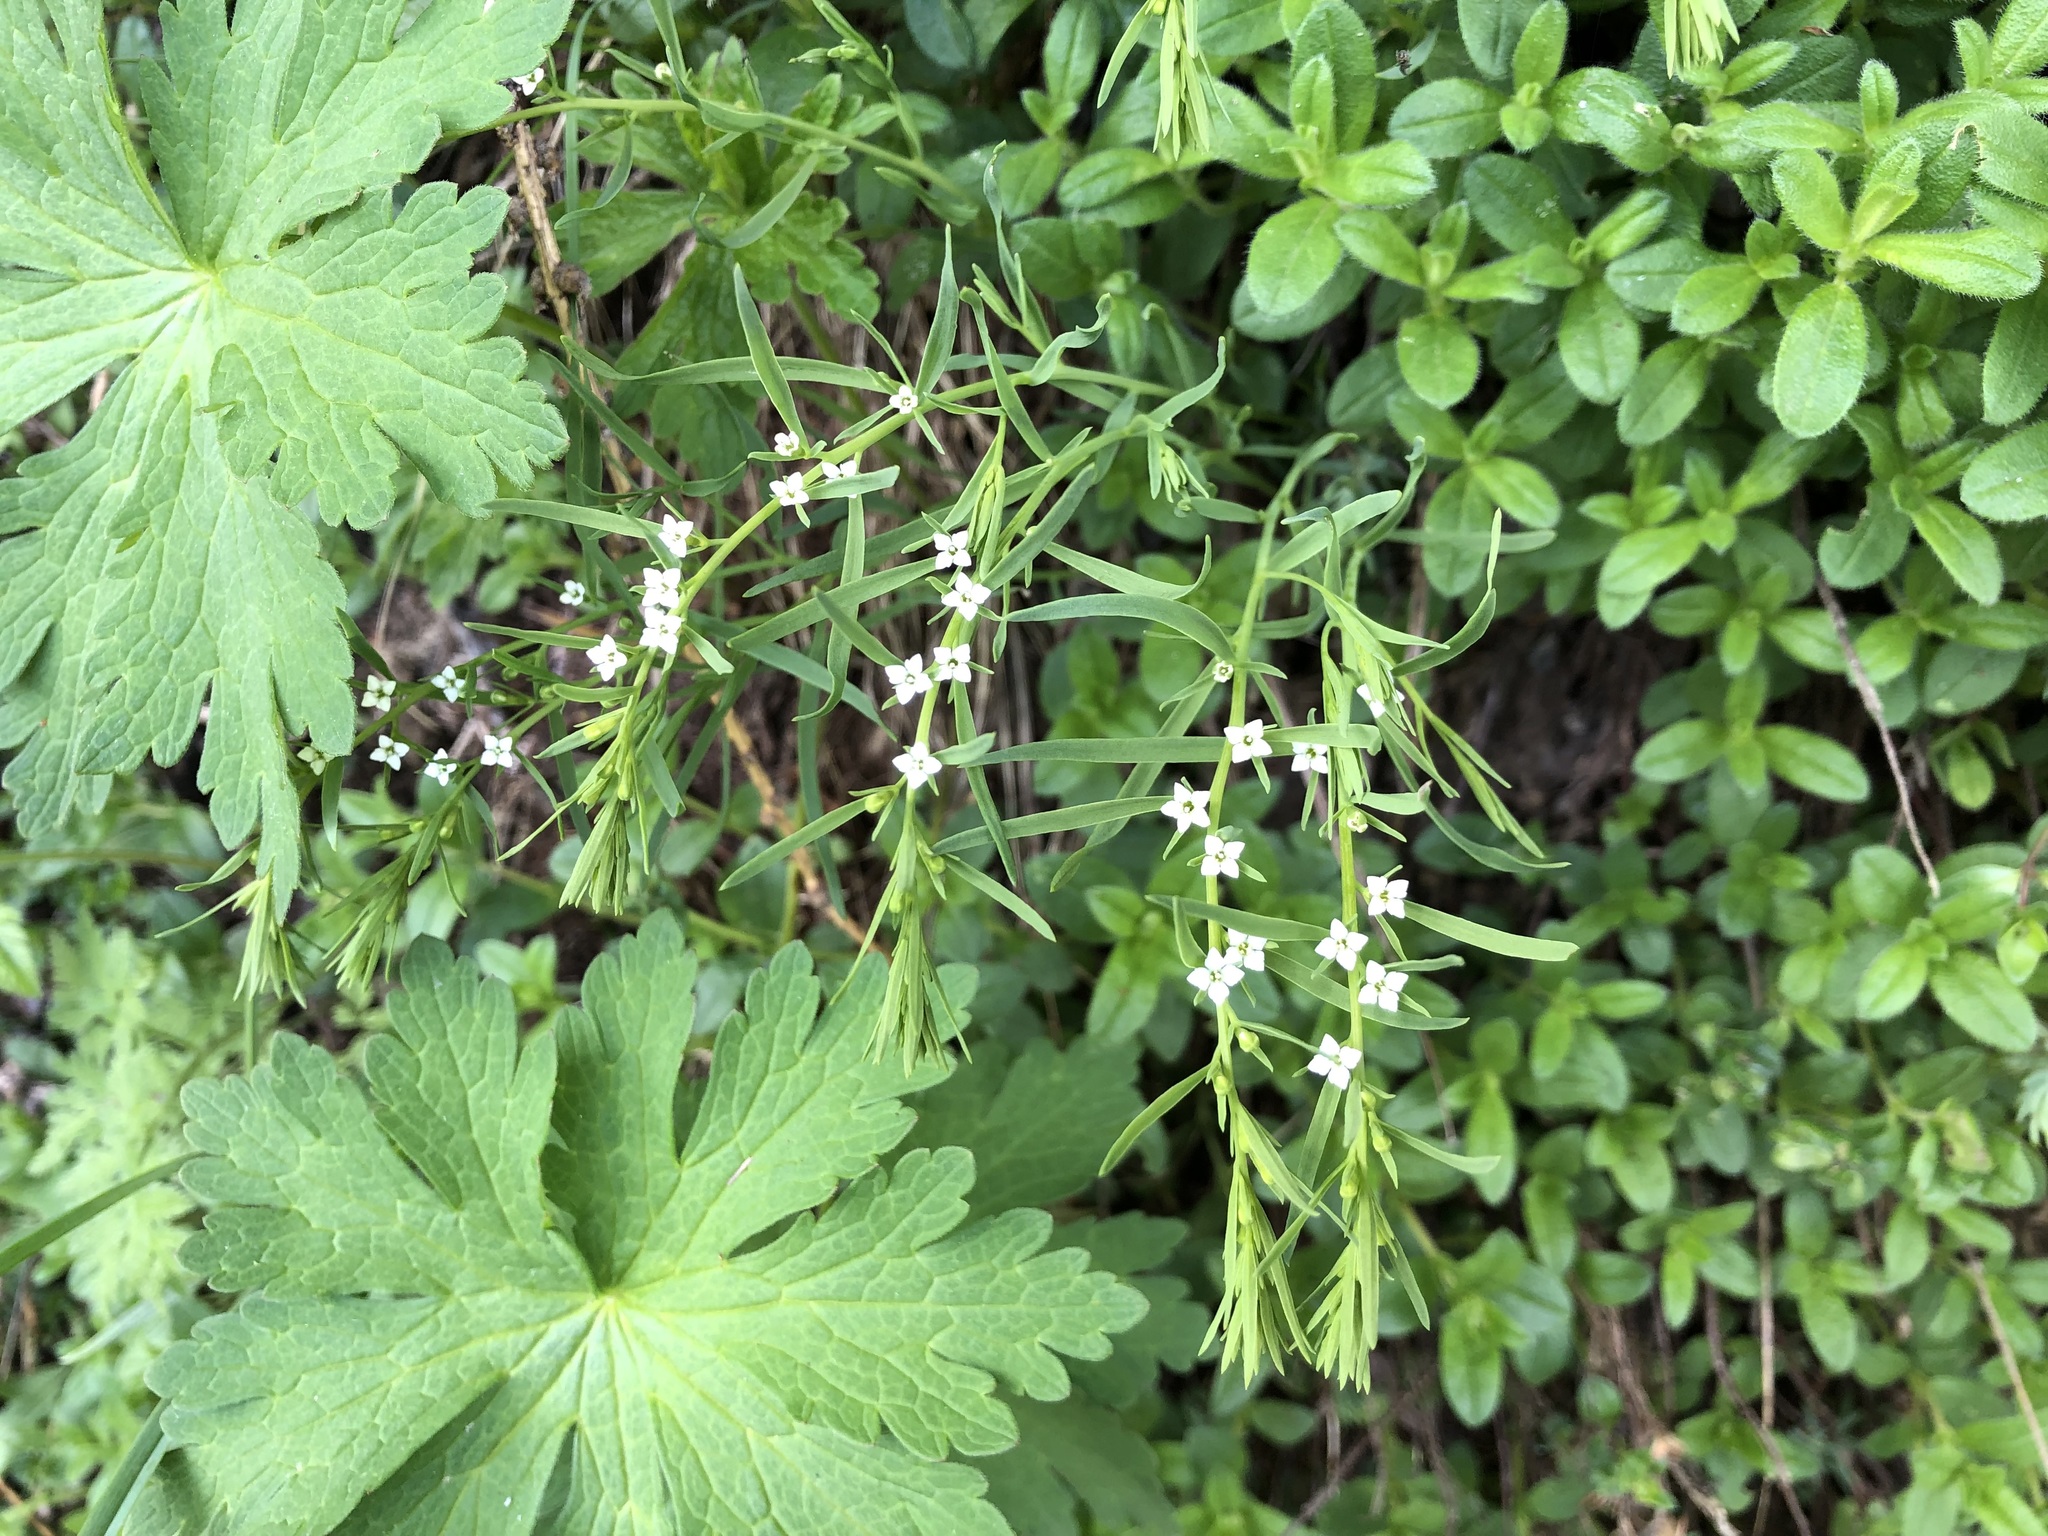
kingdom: Plantae
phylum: Tracheophyta
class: Magnoliopsida
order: Santalales
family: Thesiaceae
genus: Thesium
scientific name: Thesium alpinum
